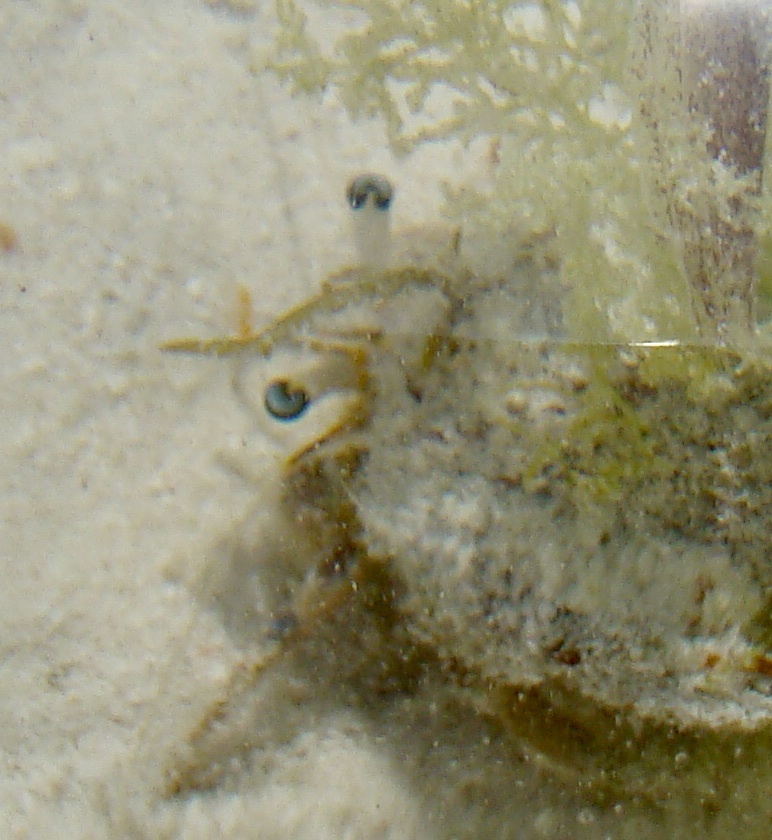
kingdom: Animalia
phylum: Arthropoda
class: Malacostraca
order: Decapoda
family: Diogenidae
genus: Dardanus
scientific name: Dardanus scutellatus
